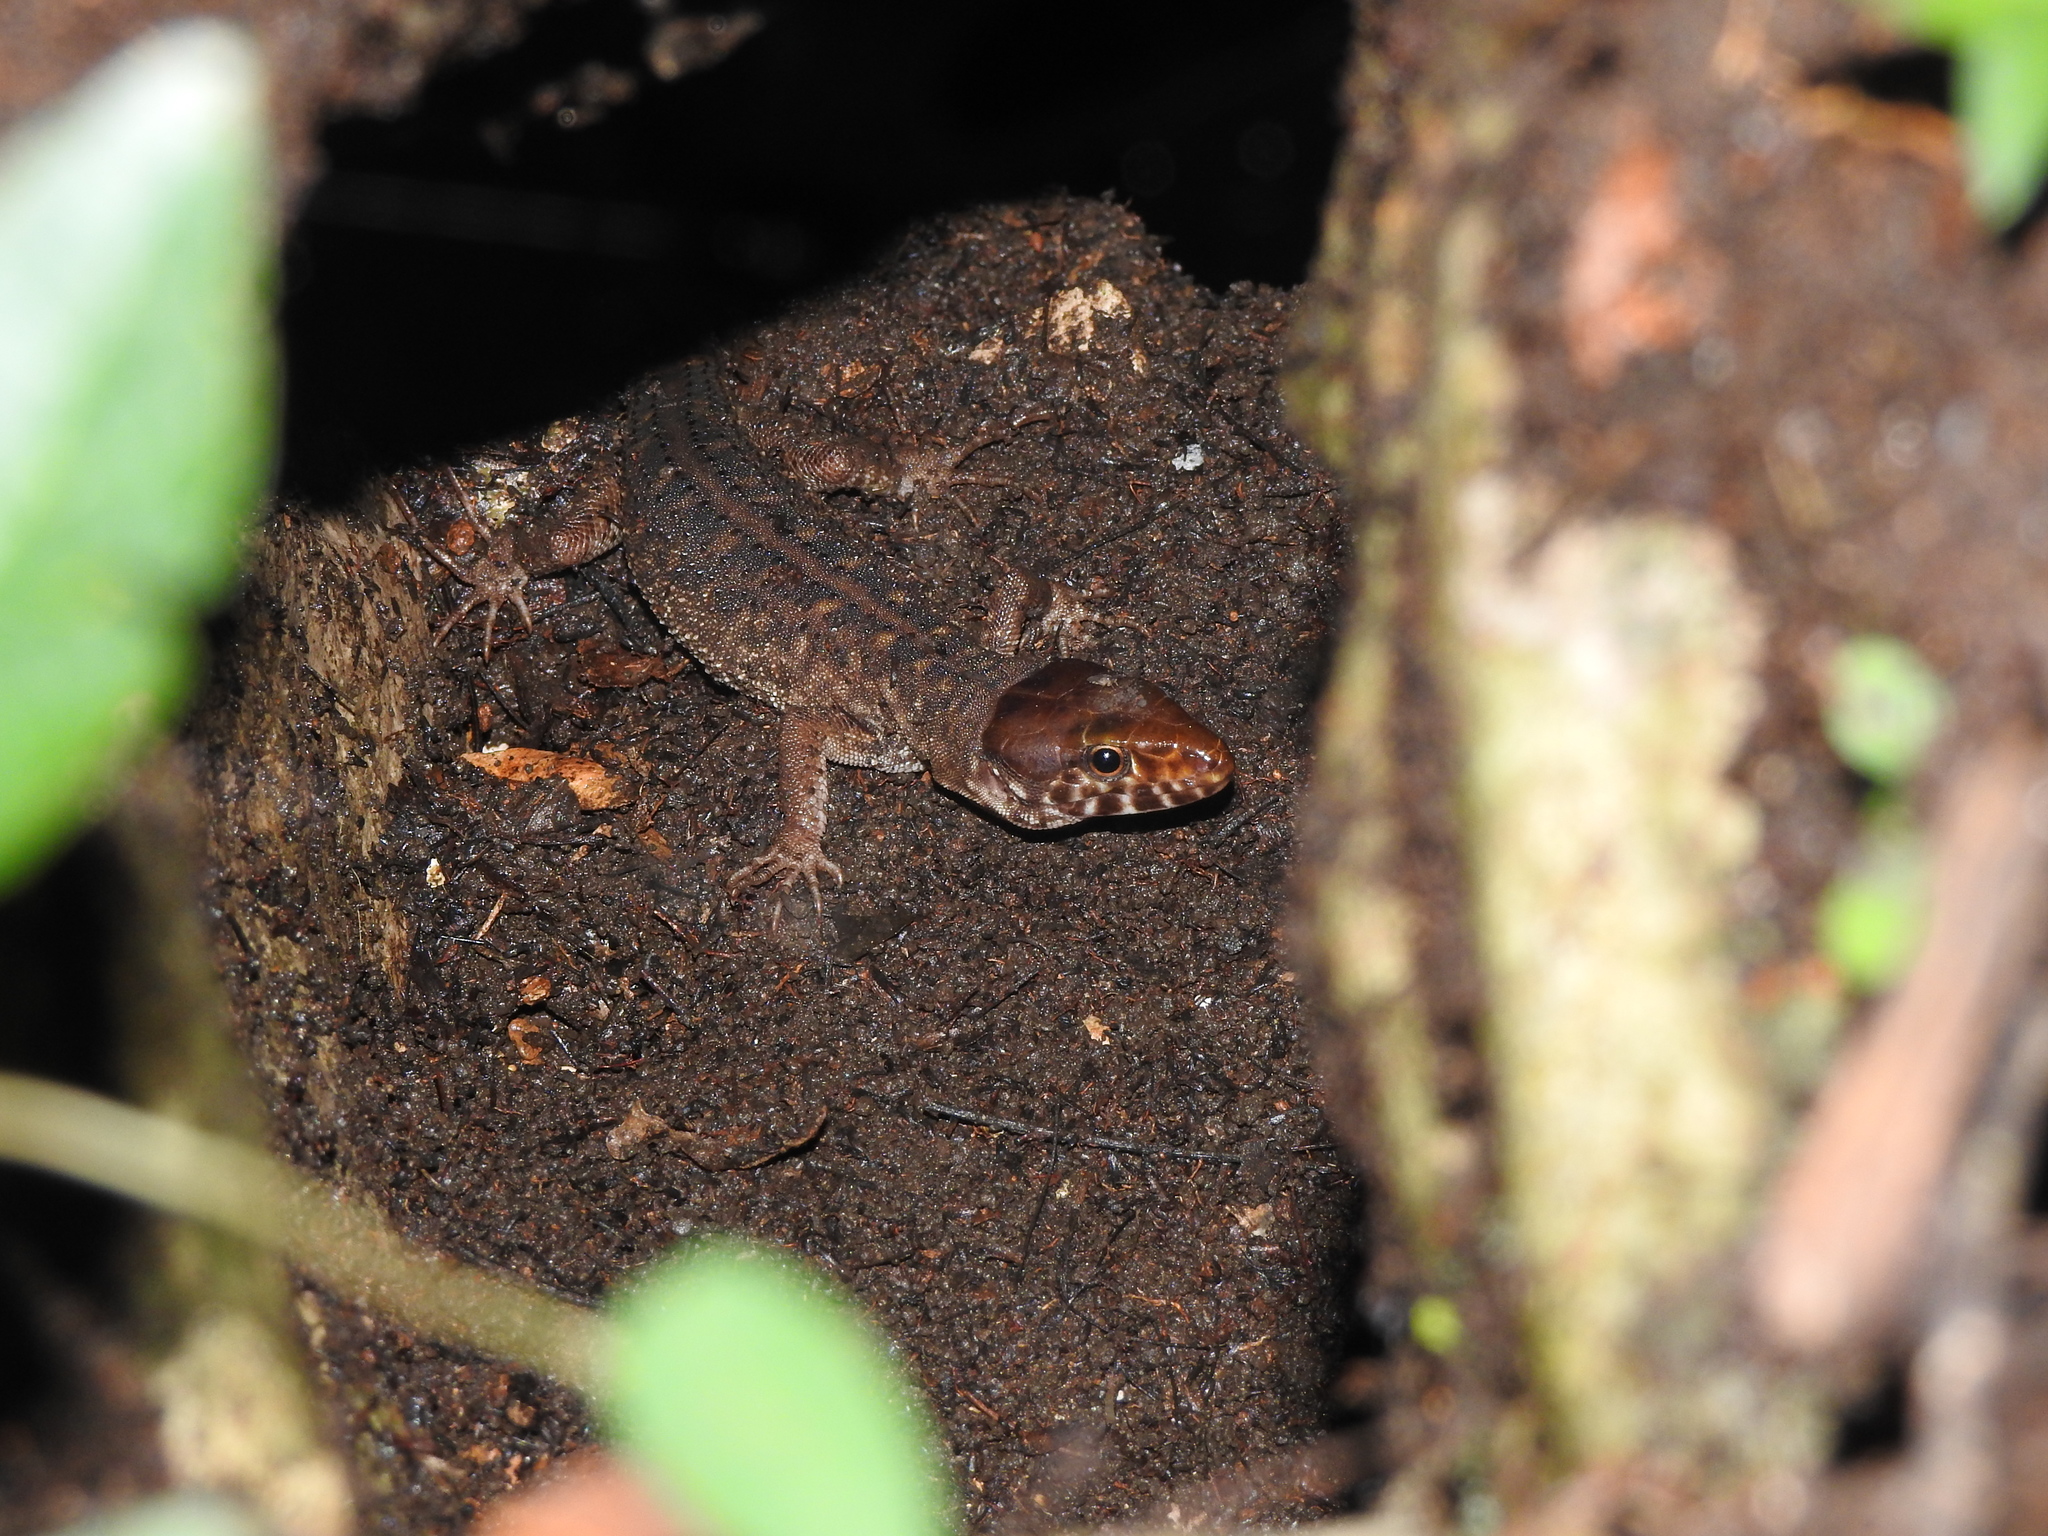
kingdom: Animalia
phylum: Chordata
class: Squamata
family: Xantusiidae
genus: Lepidophyma
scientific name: Lepidophyma sylvaticum
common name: Madrean tropical night lizard
